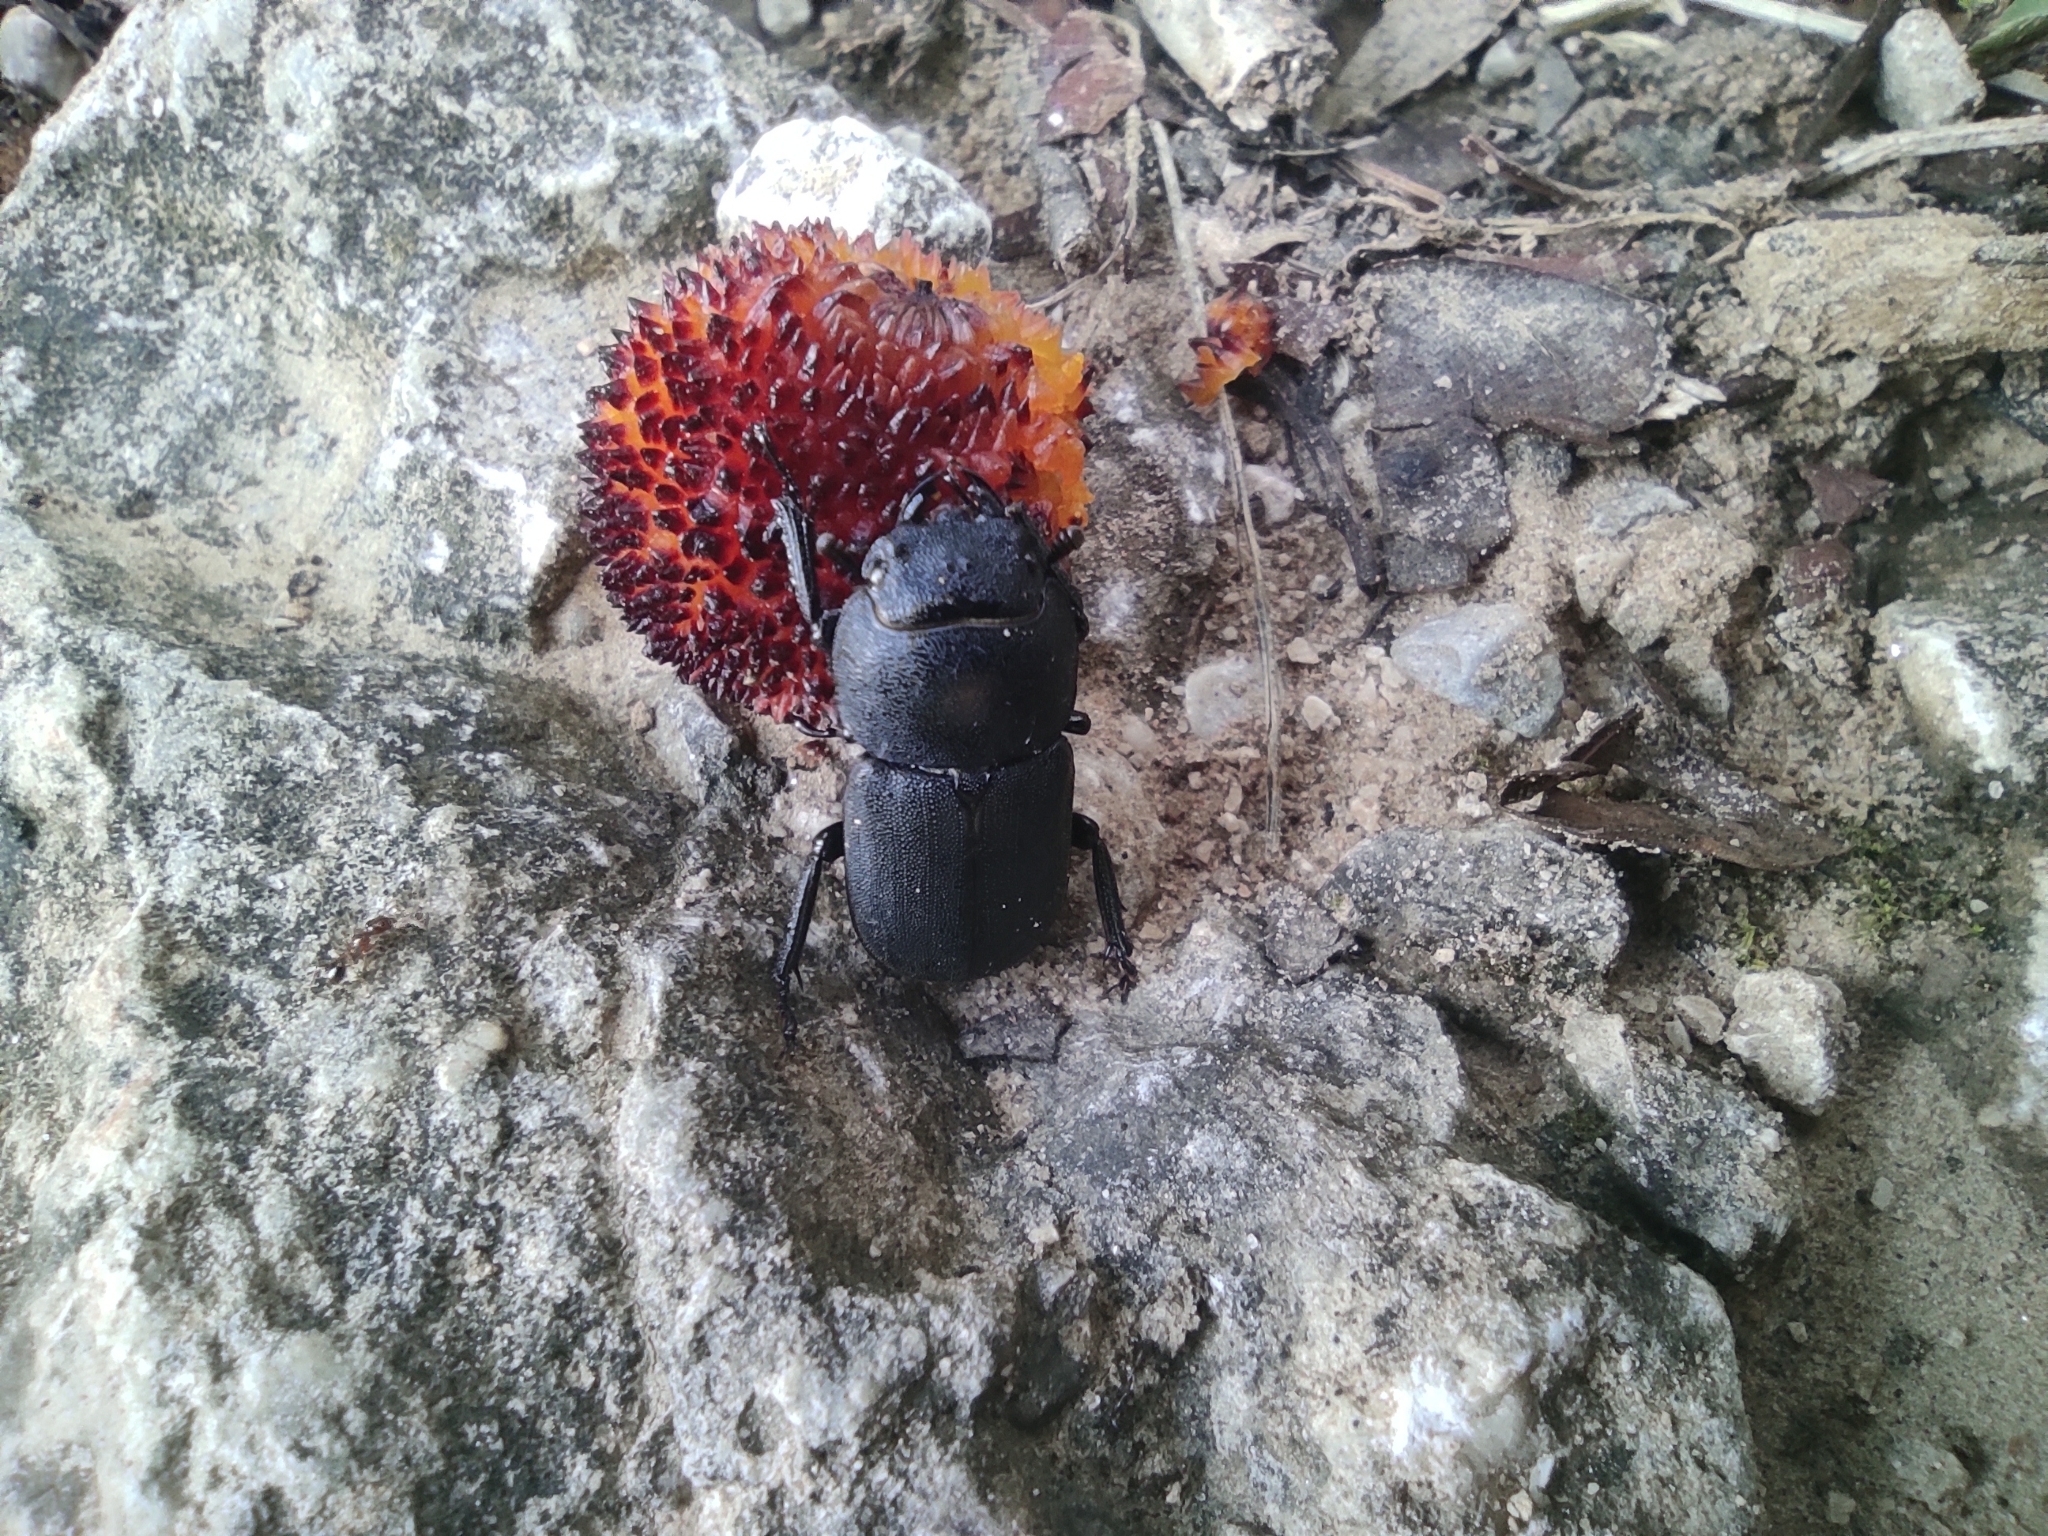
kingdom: Animalia
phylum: Arthropoda
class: Insecta
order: Coleoptera
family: Lucanidae
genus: Dorcus
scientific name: Dorcus parallelipipedus
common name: Lesser stag beetle
